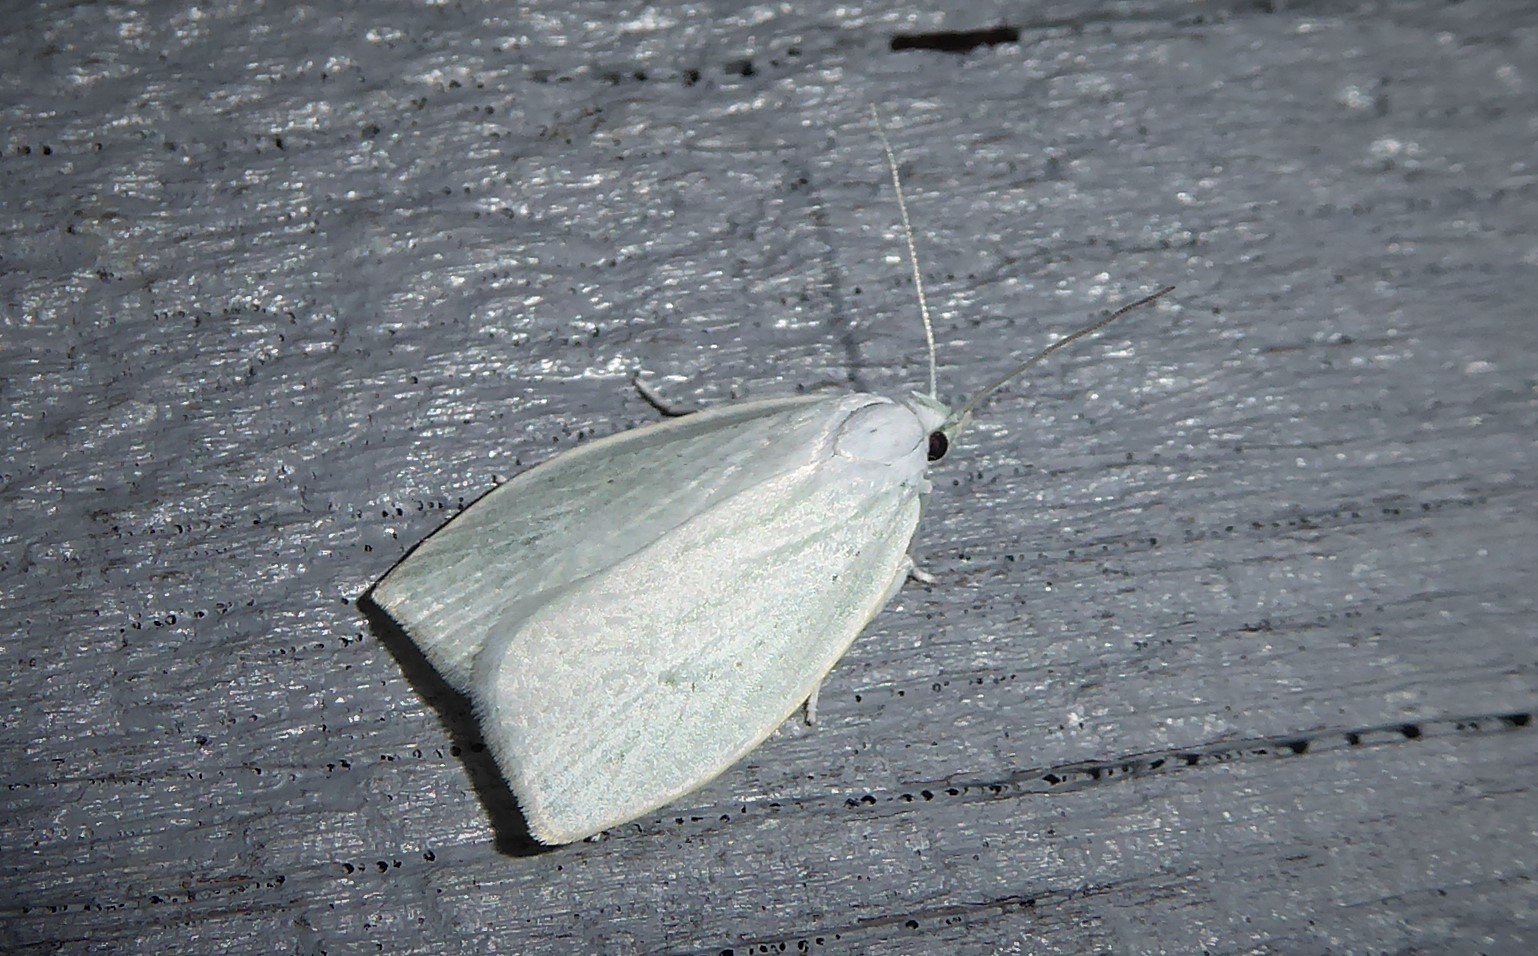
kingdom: Animalia
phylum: Arthropoda
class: Insecta
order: Lepidoptera
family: Oecophoridae
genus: Nymphostola
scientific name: Nymphostola galactina
